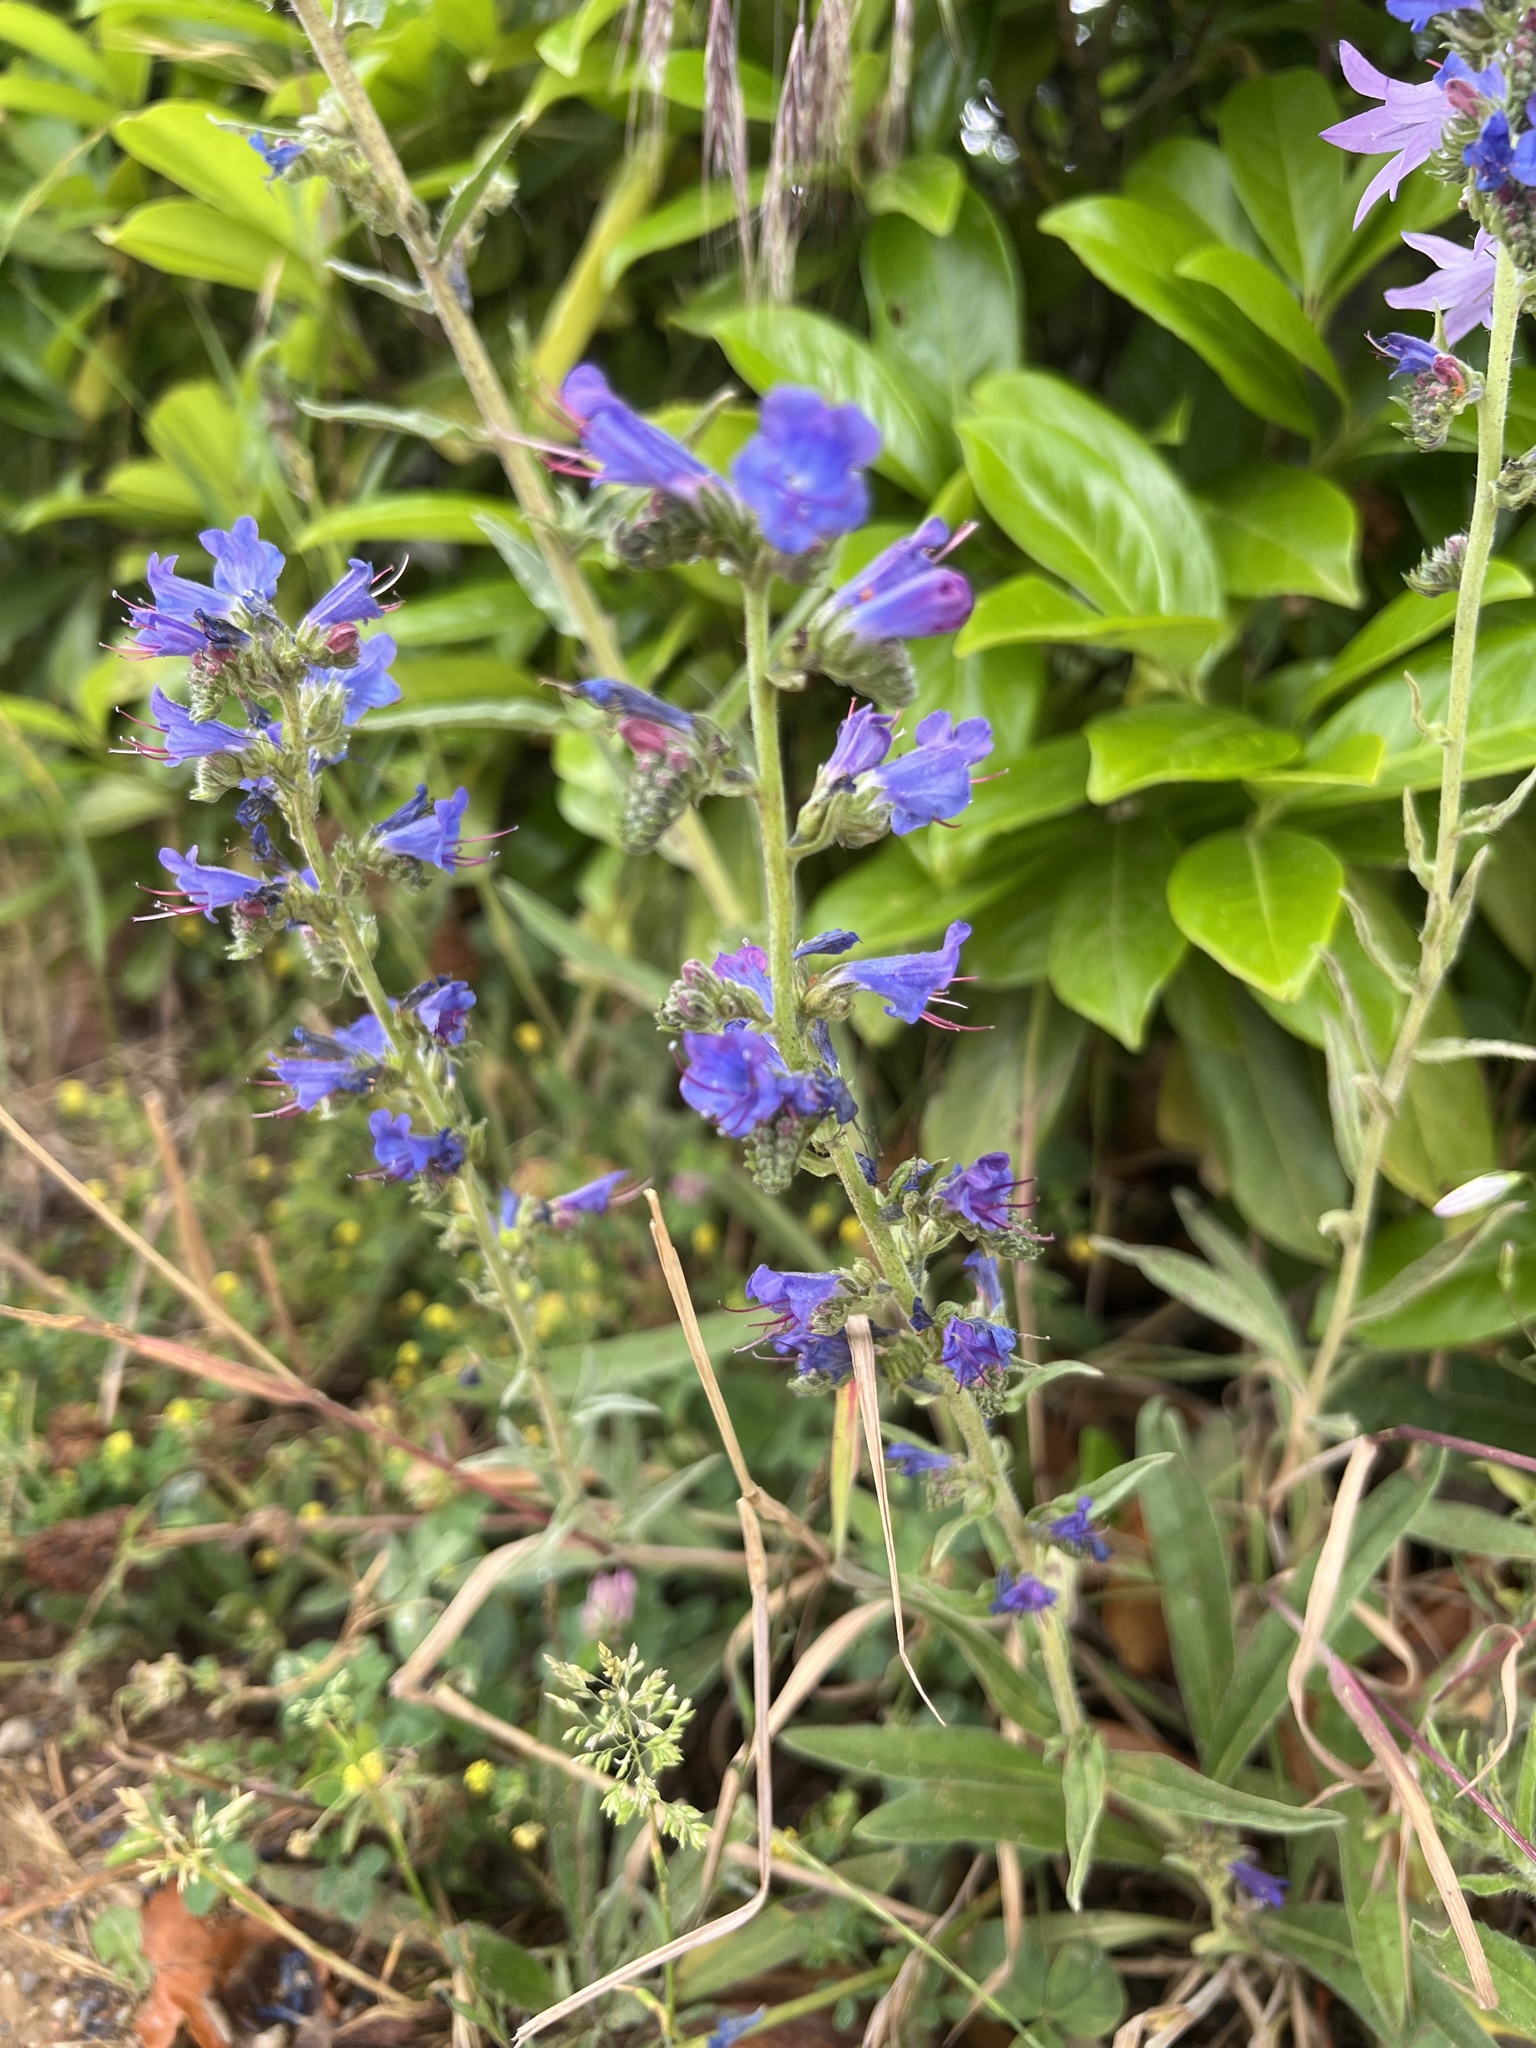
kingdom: Plantae
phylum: Tracheophyta
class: Magnoliopsida
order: Boraginales
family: Boraginaceae
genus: Echium
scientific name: Echium vulgare
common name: Common viper's bugloss
